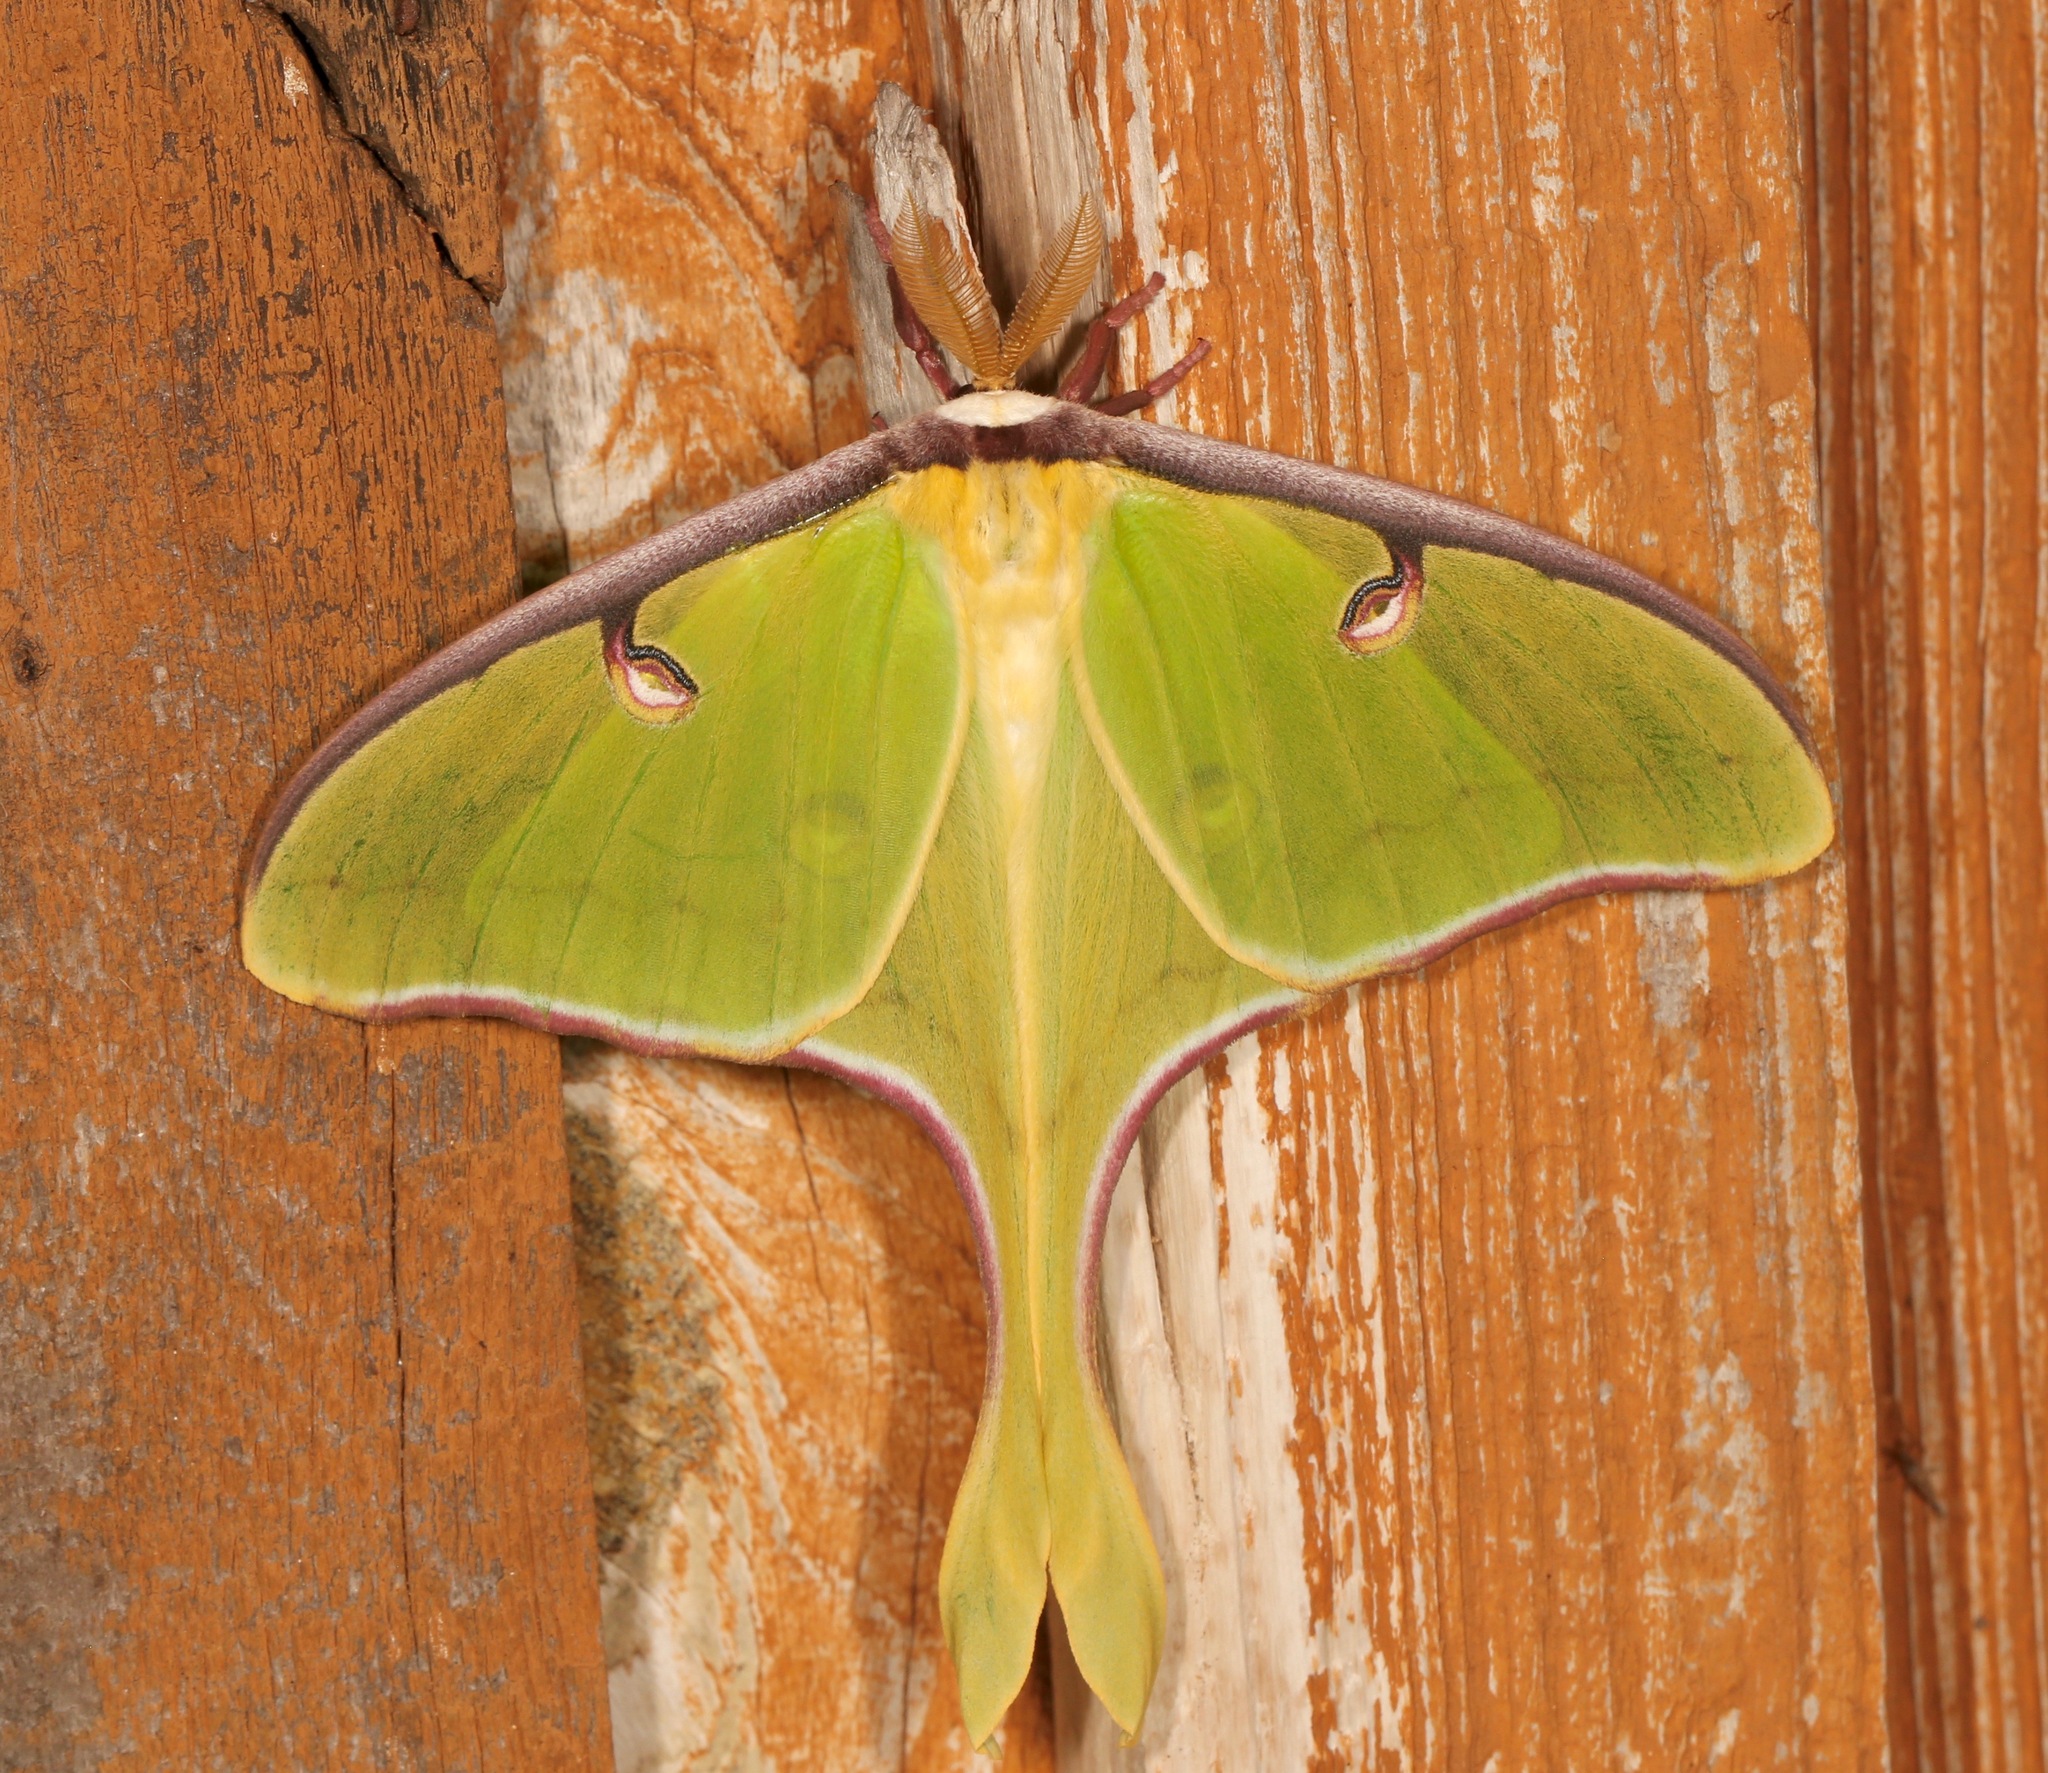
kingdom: Animalia
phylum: Arthropoda
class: Insecta
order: Lepidoptera
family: Saturniidae
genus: Actias
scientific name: Actias luna
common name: Luna moth
